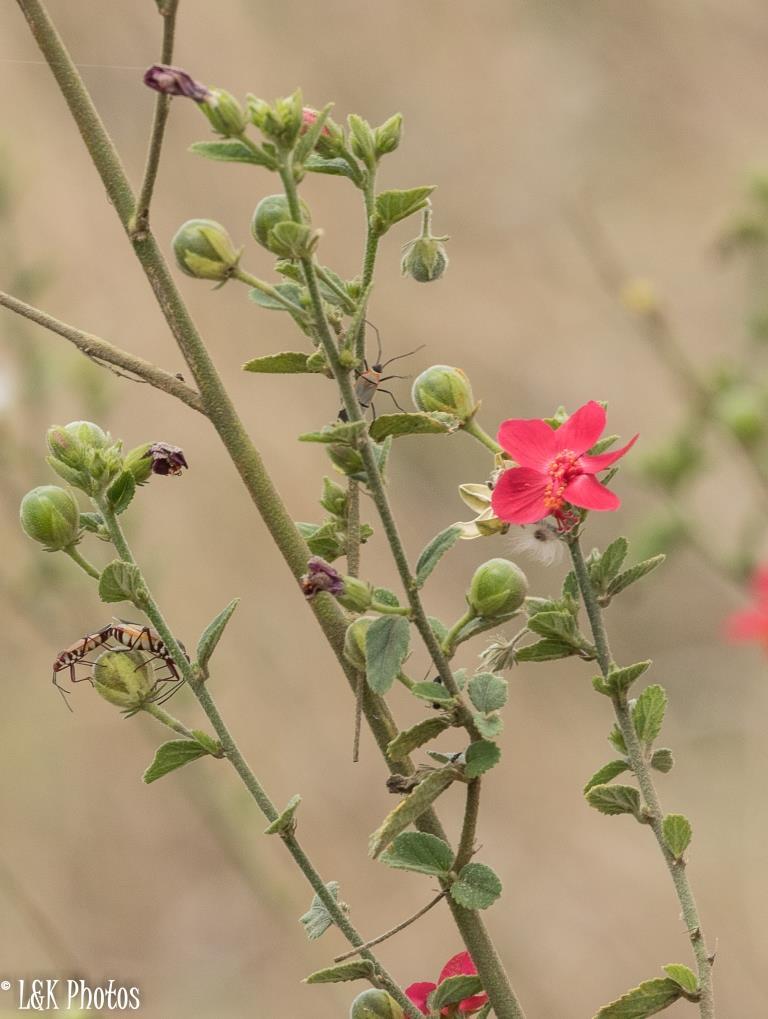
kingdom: Plantae
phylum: Tracheophyta
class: Magnoliopsida
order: Malvales
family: Malvaceae
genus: Hibiscus
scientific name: Hibiscus aponeurus
